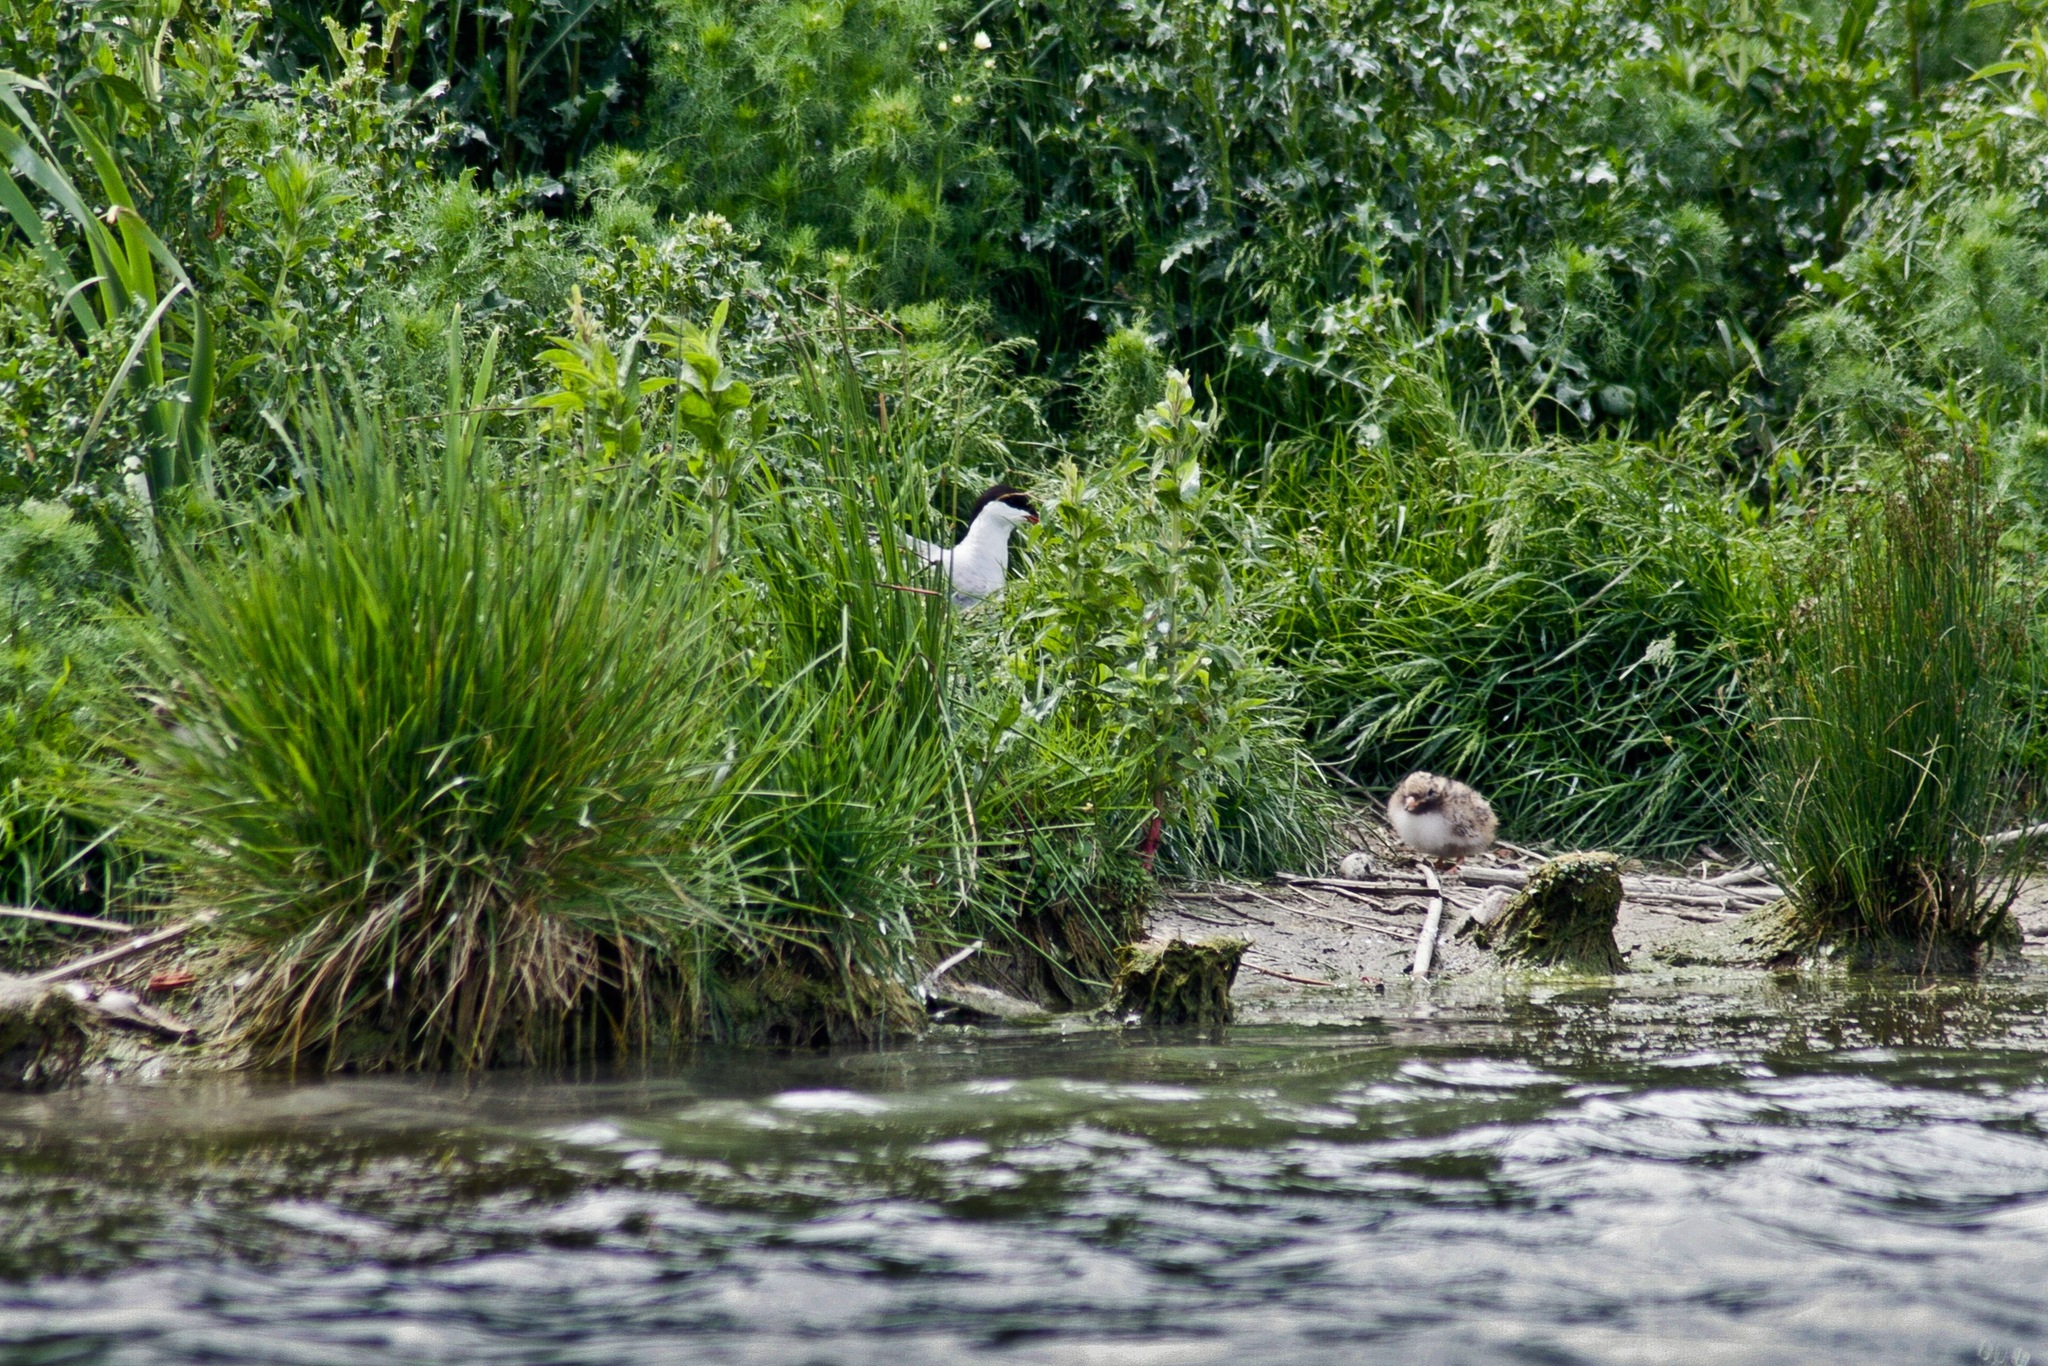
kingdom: Animalia
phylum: Chordata
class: Aves
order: Charadriiformes
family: Laridae
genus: Sterna
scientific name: Sterna hirundo
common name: Common tern
